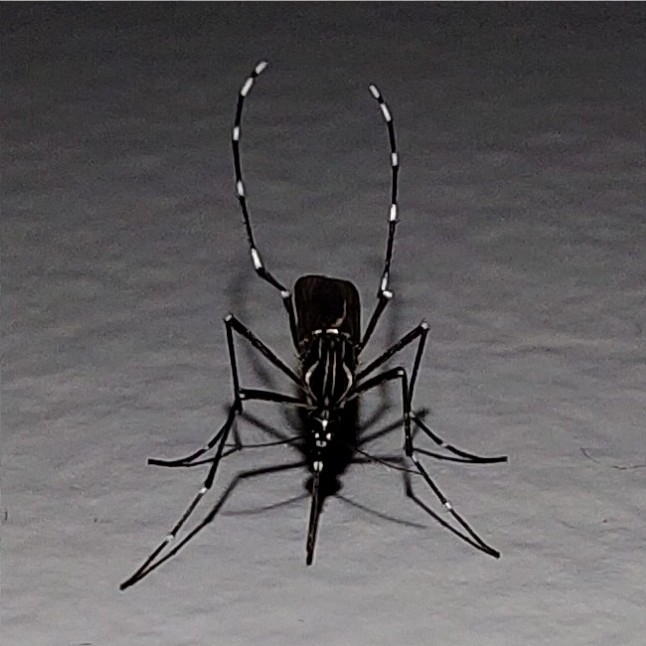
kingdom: Animalia
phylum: Arthropoda
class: Insecta
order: Diptera
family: Culicidae
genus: Aedes
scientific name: Aedes aegypti
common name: Yellow fever mosquito
